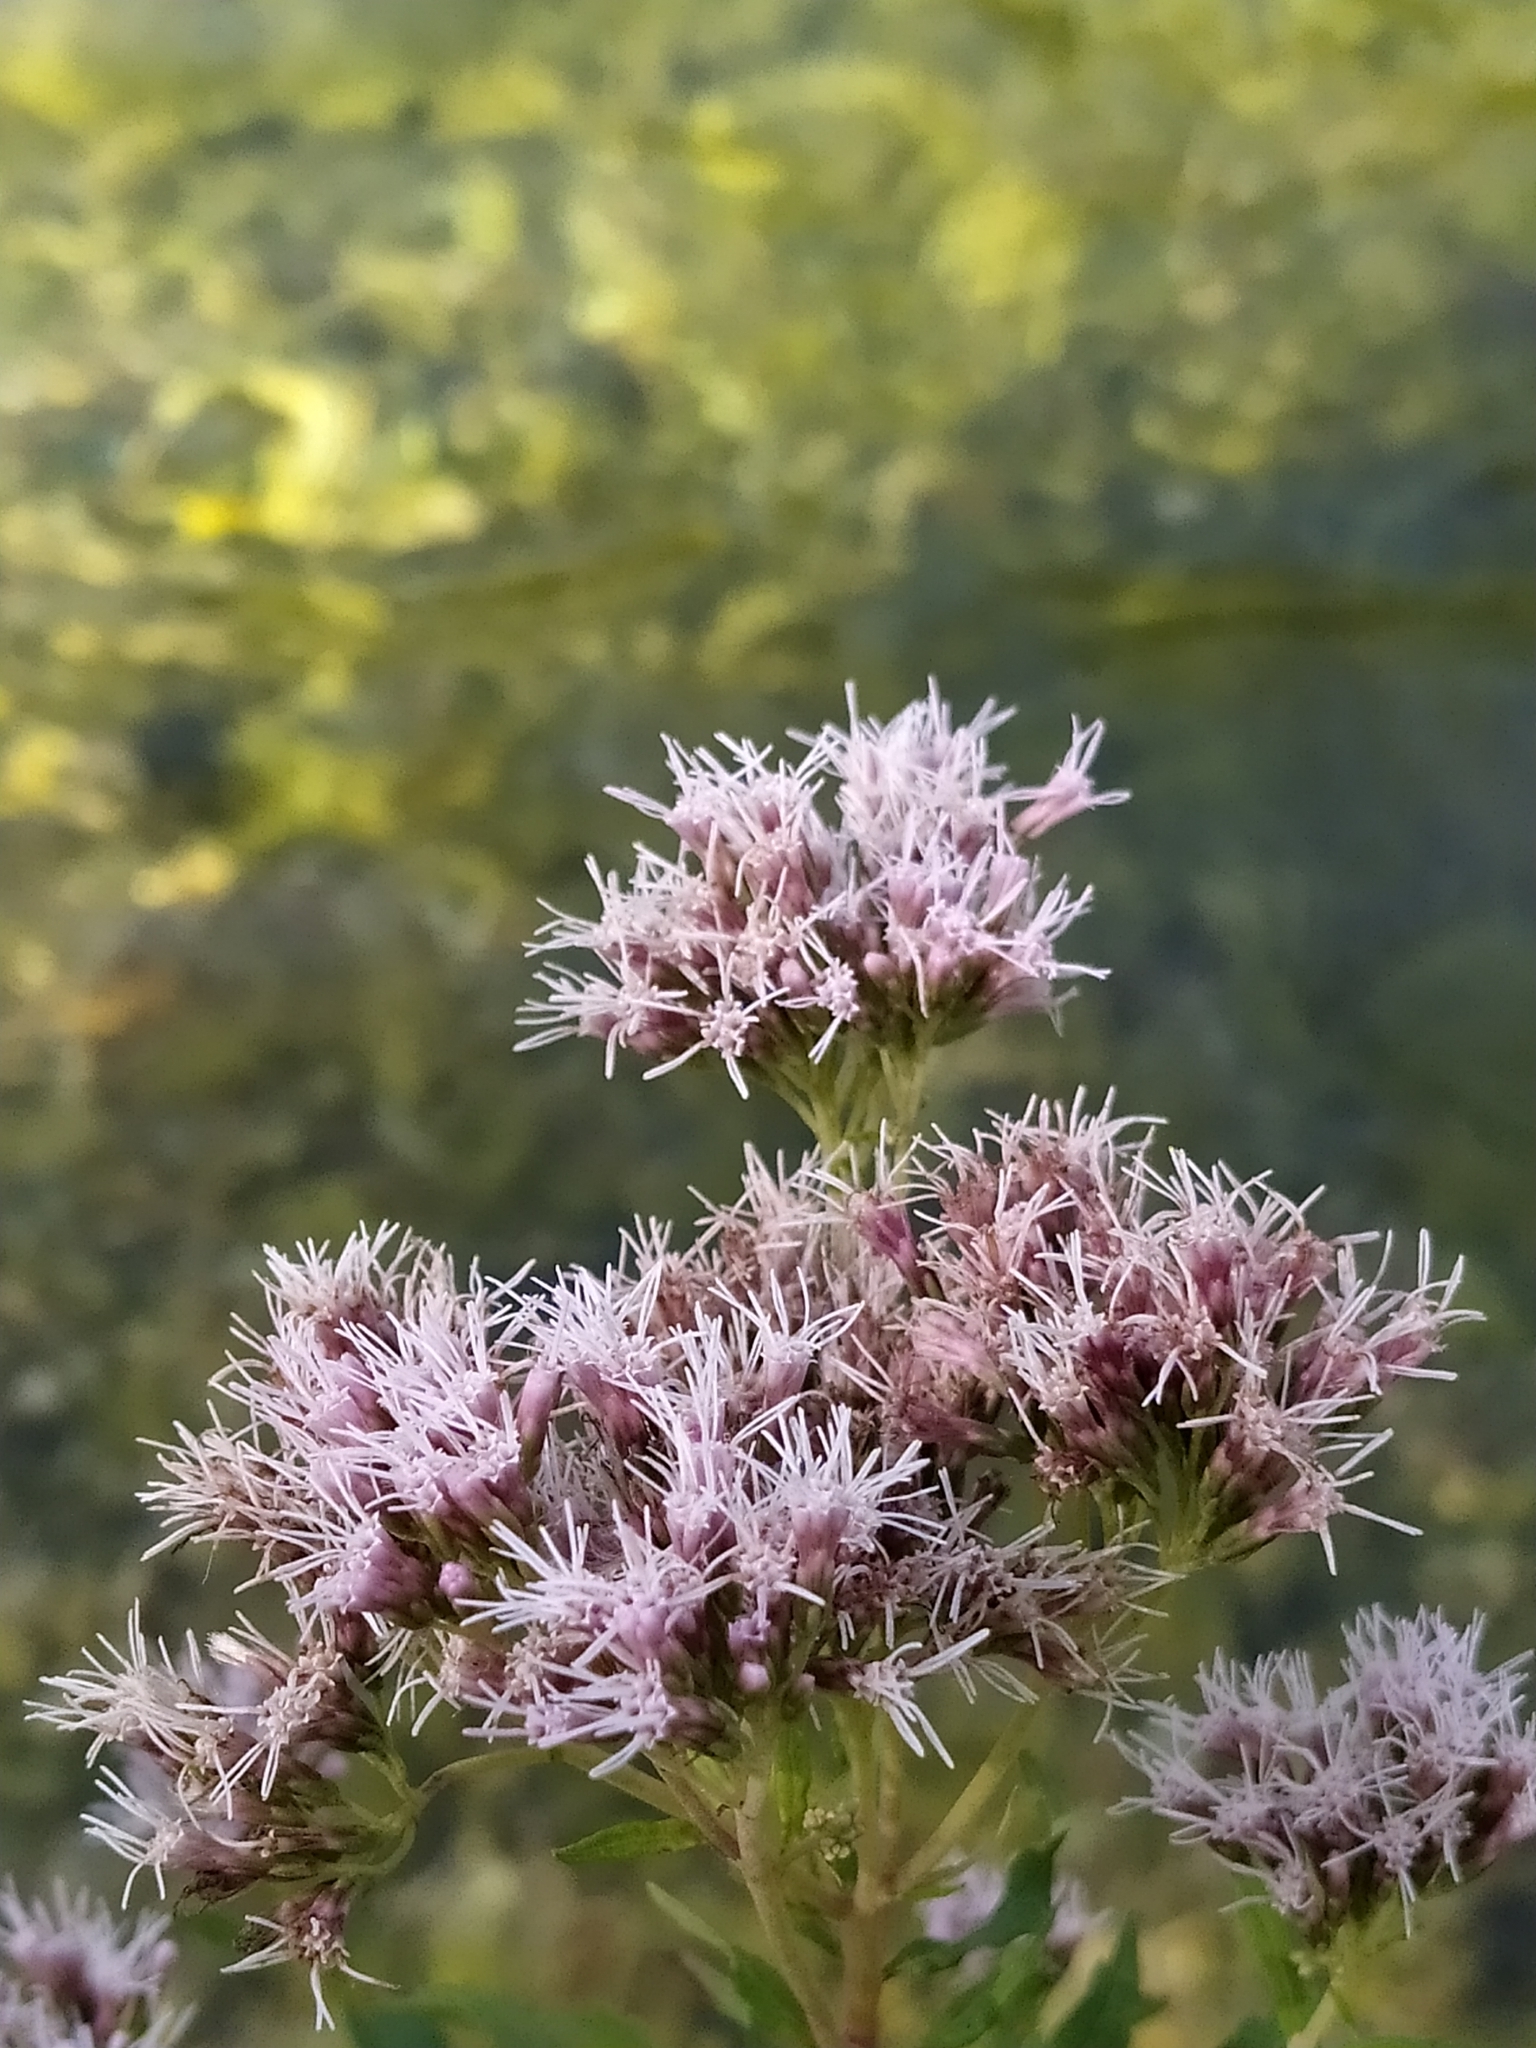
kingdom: Plantae
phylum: Tracheophyta
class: Magnoliopsida
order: Asterales
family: Asteraceae
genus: Eupatorium
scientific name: Eupatorium cannabinum
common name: Hemp-agrimony
